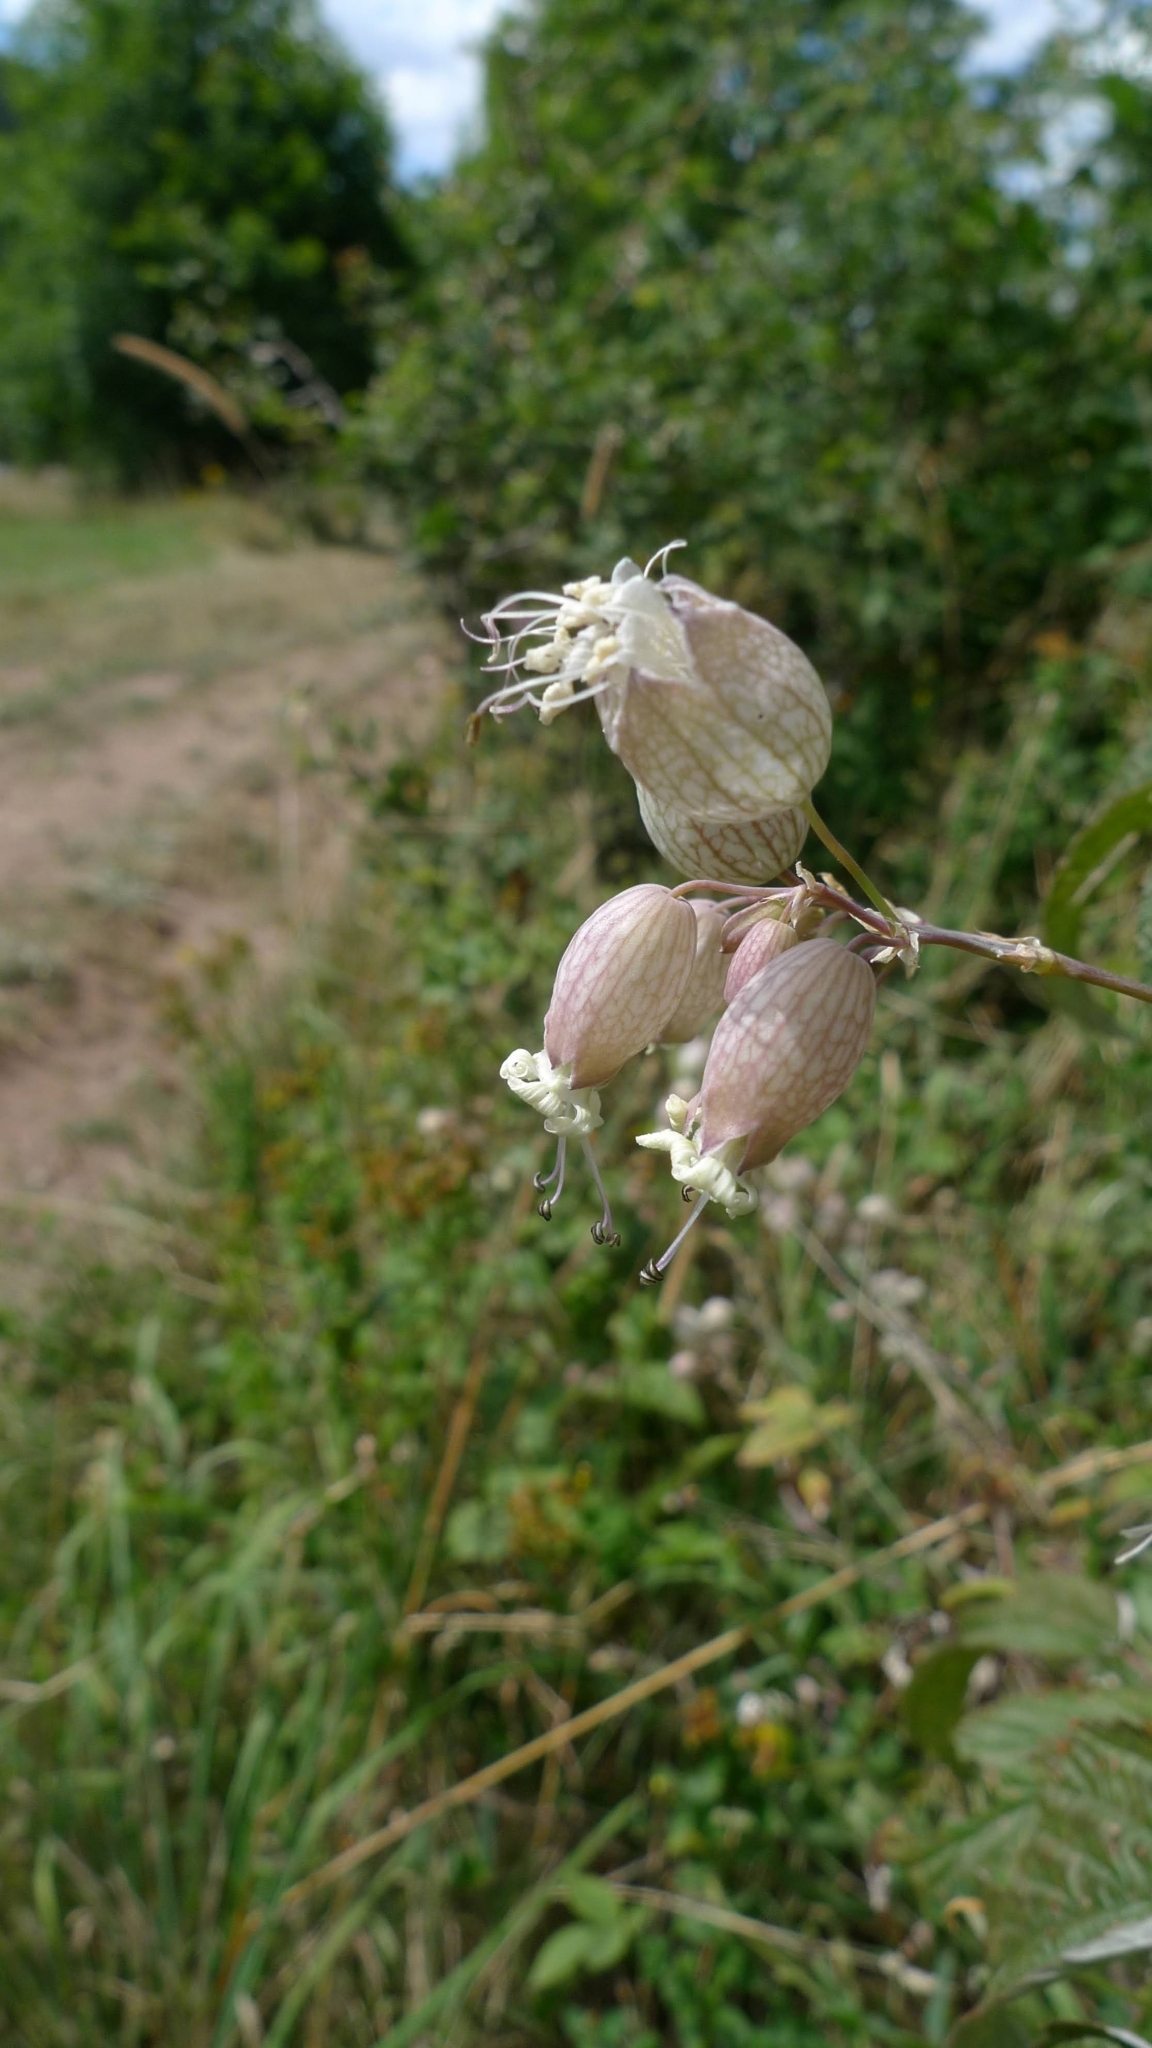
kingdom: Plantae
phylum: Tracheophyta
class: Magnoliopsida
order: Caryophyllales
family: Caryophyllaceae
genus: Silene
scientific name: Silene vulgaris
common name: Bladder campion
